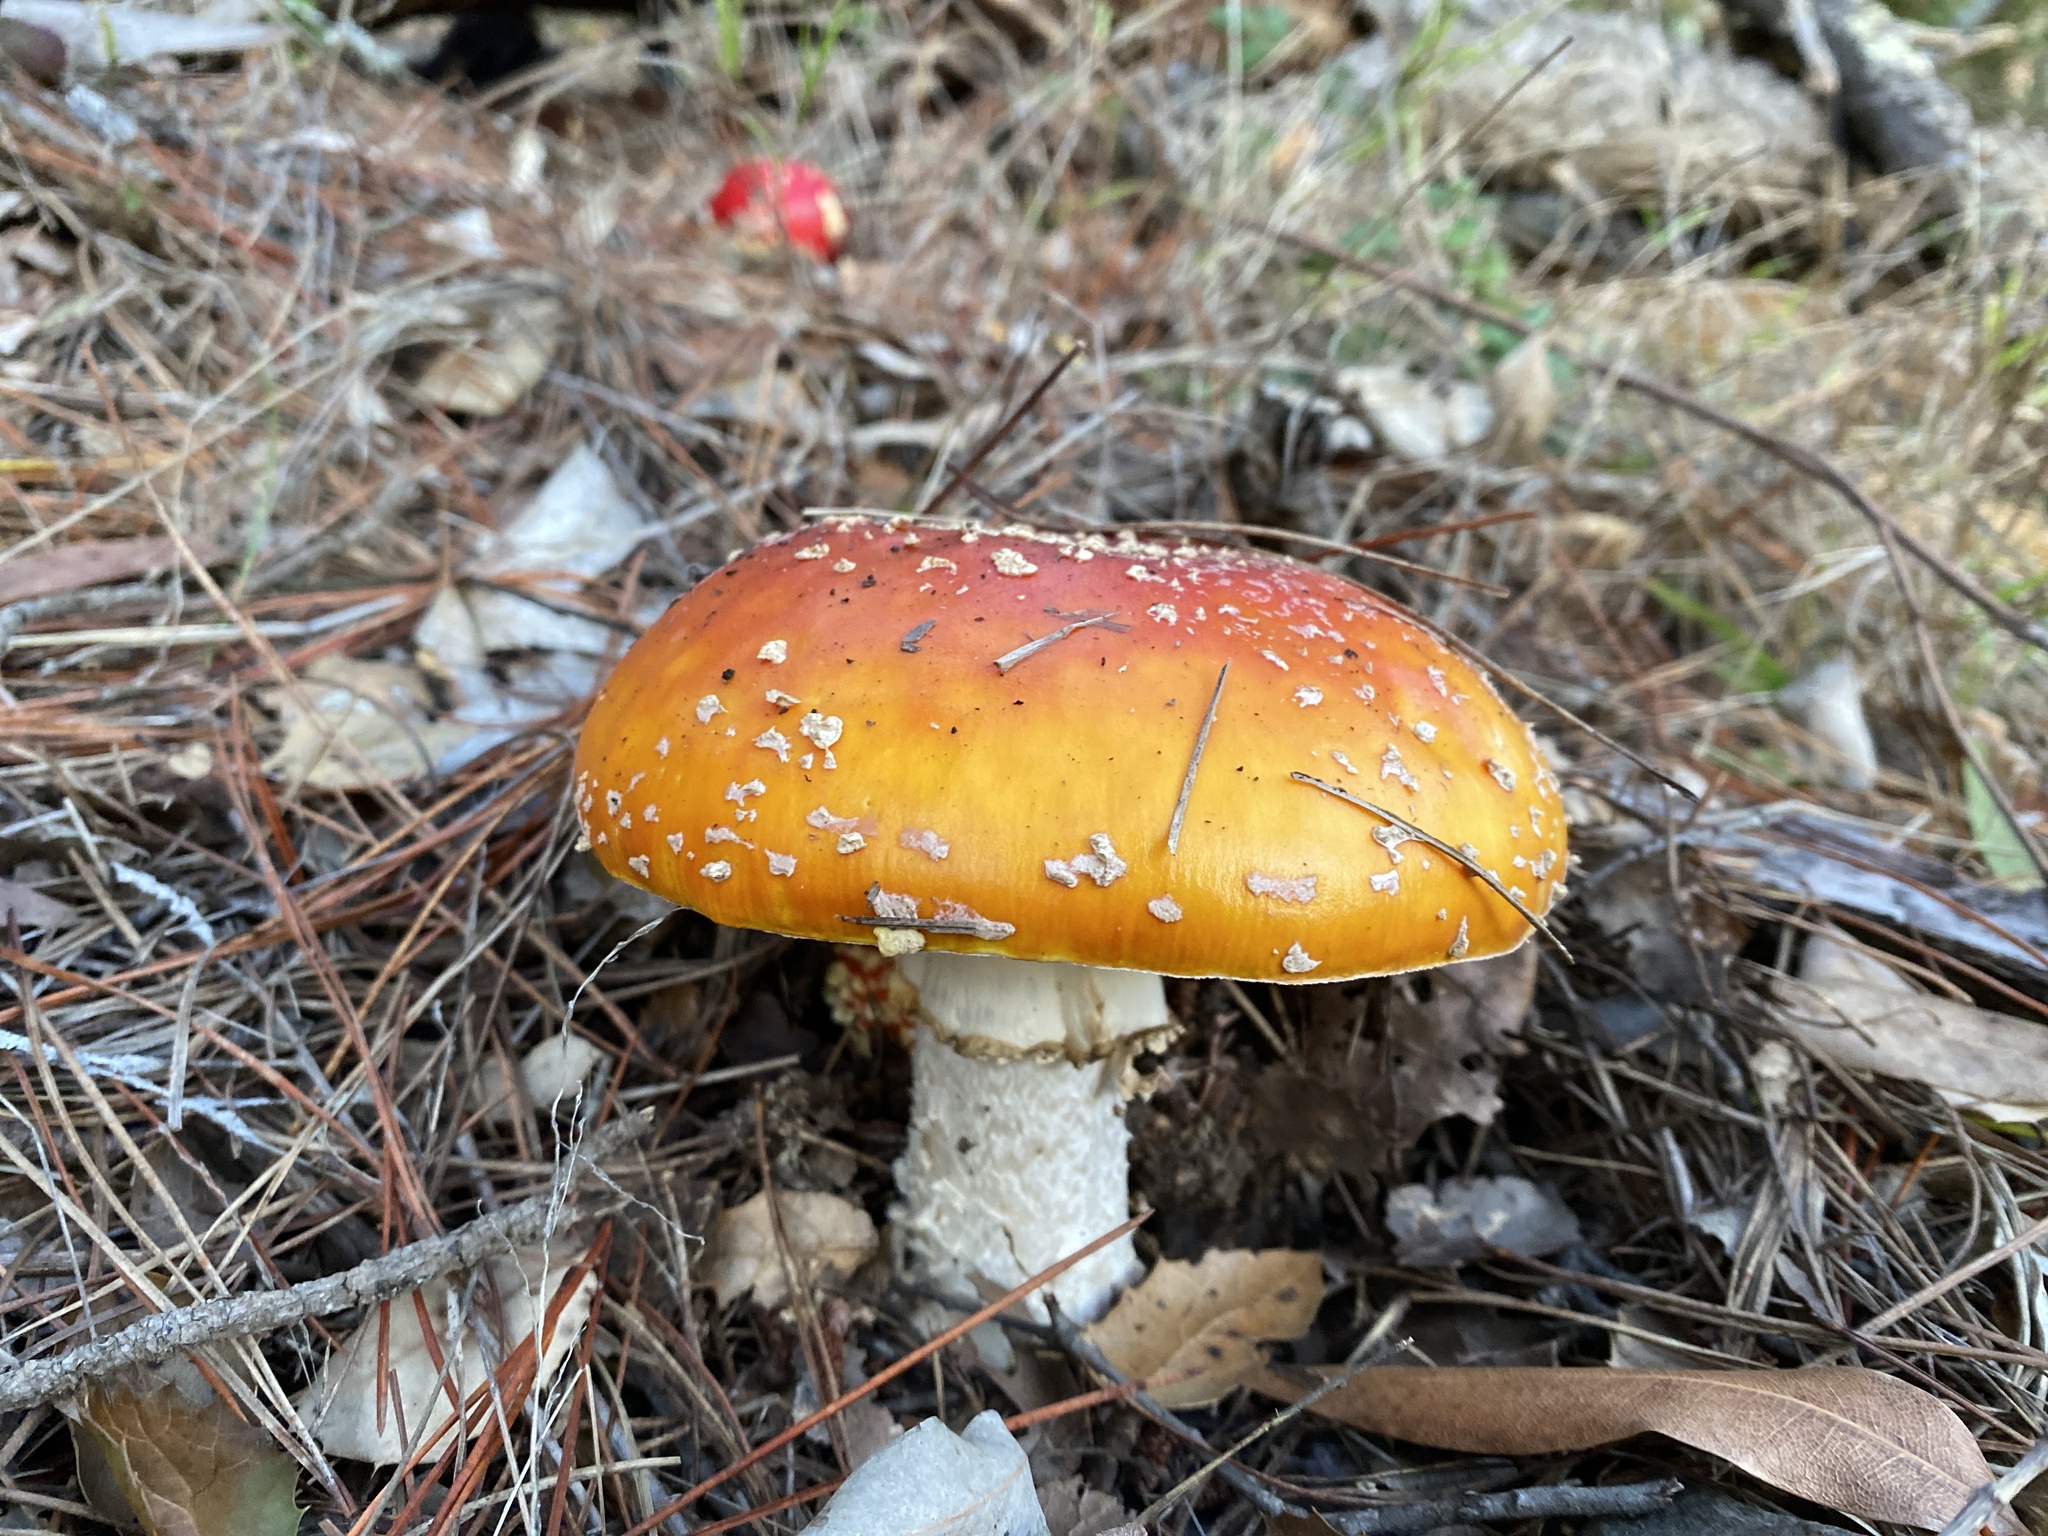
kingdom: Fungi
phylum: Basidiomycota
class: Agaricomycetes
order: Agaricales
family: Amanitaceae
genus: Amanita
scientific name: Amanita muscaria
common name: Fly agaric
